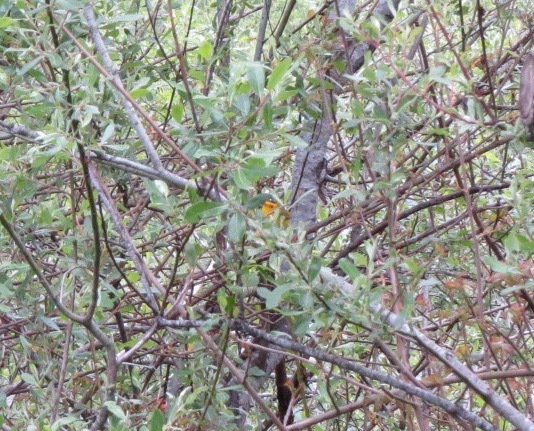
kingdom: Animalia
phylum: Chordata
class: Aves
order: Passeriformes
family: Parulidae
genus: Cardellina
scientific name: Cardellina pusilla
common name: Wilson's warbler
